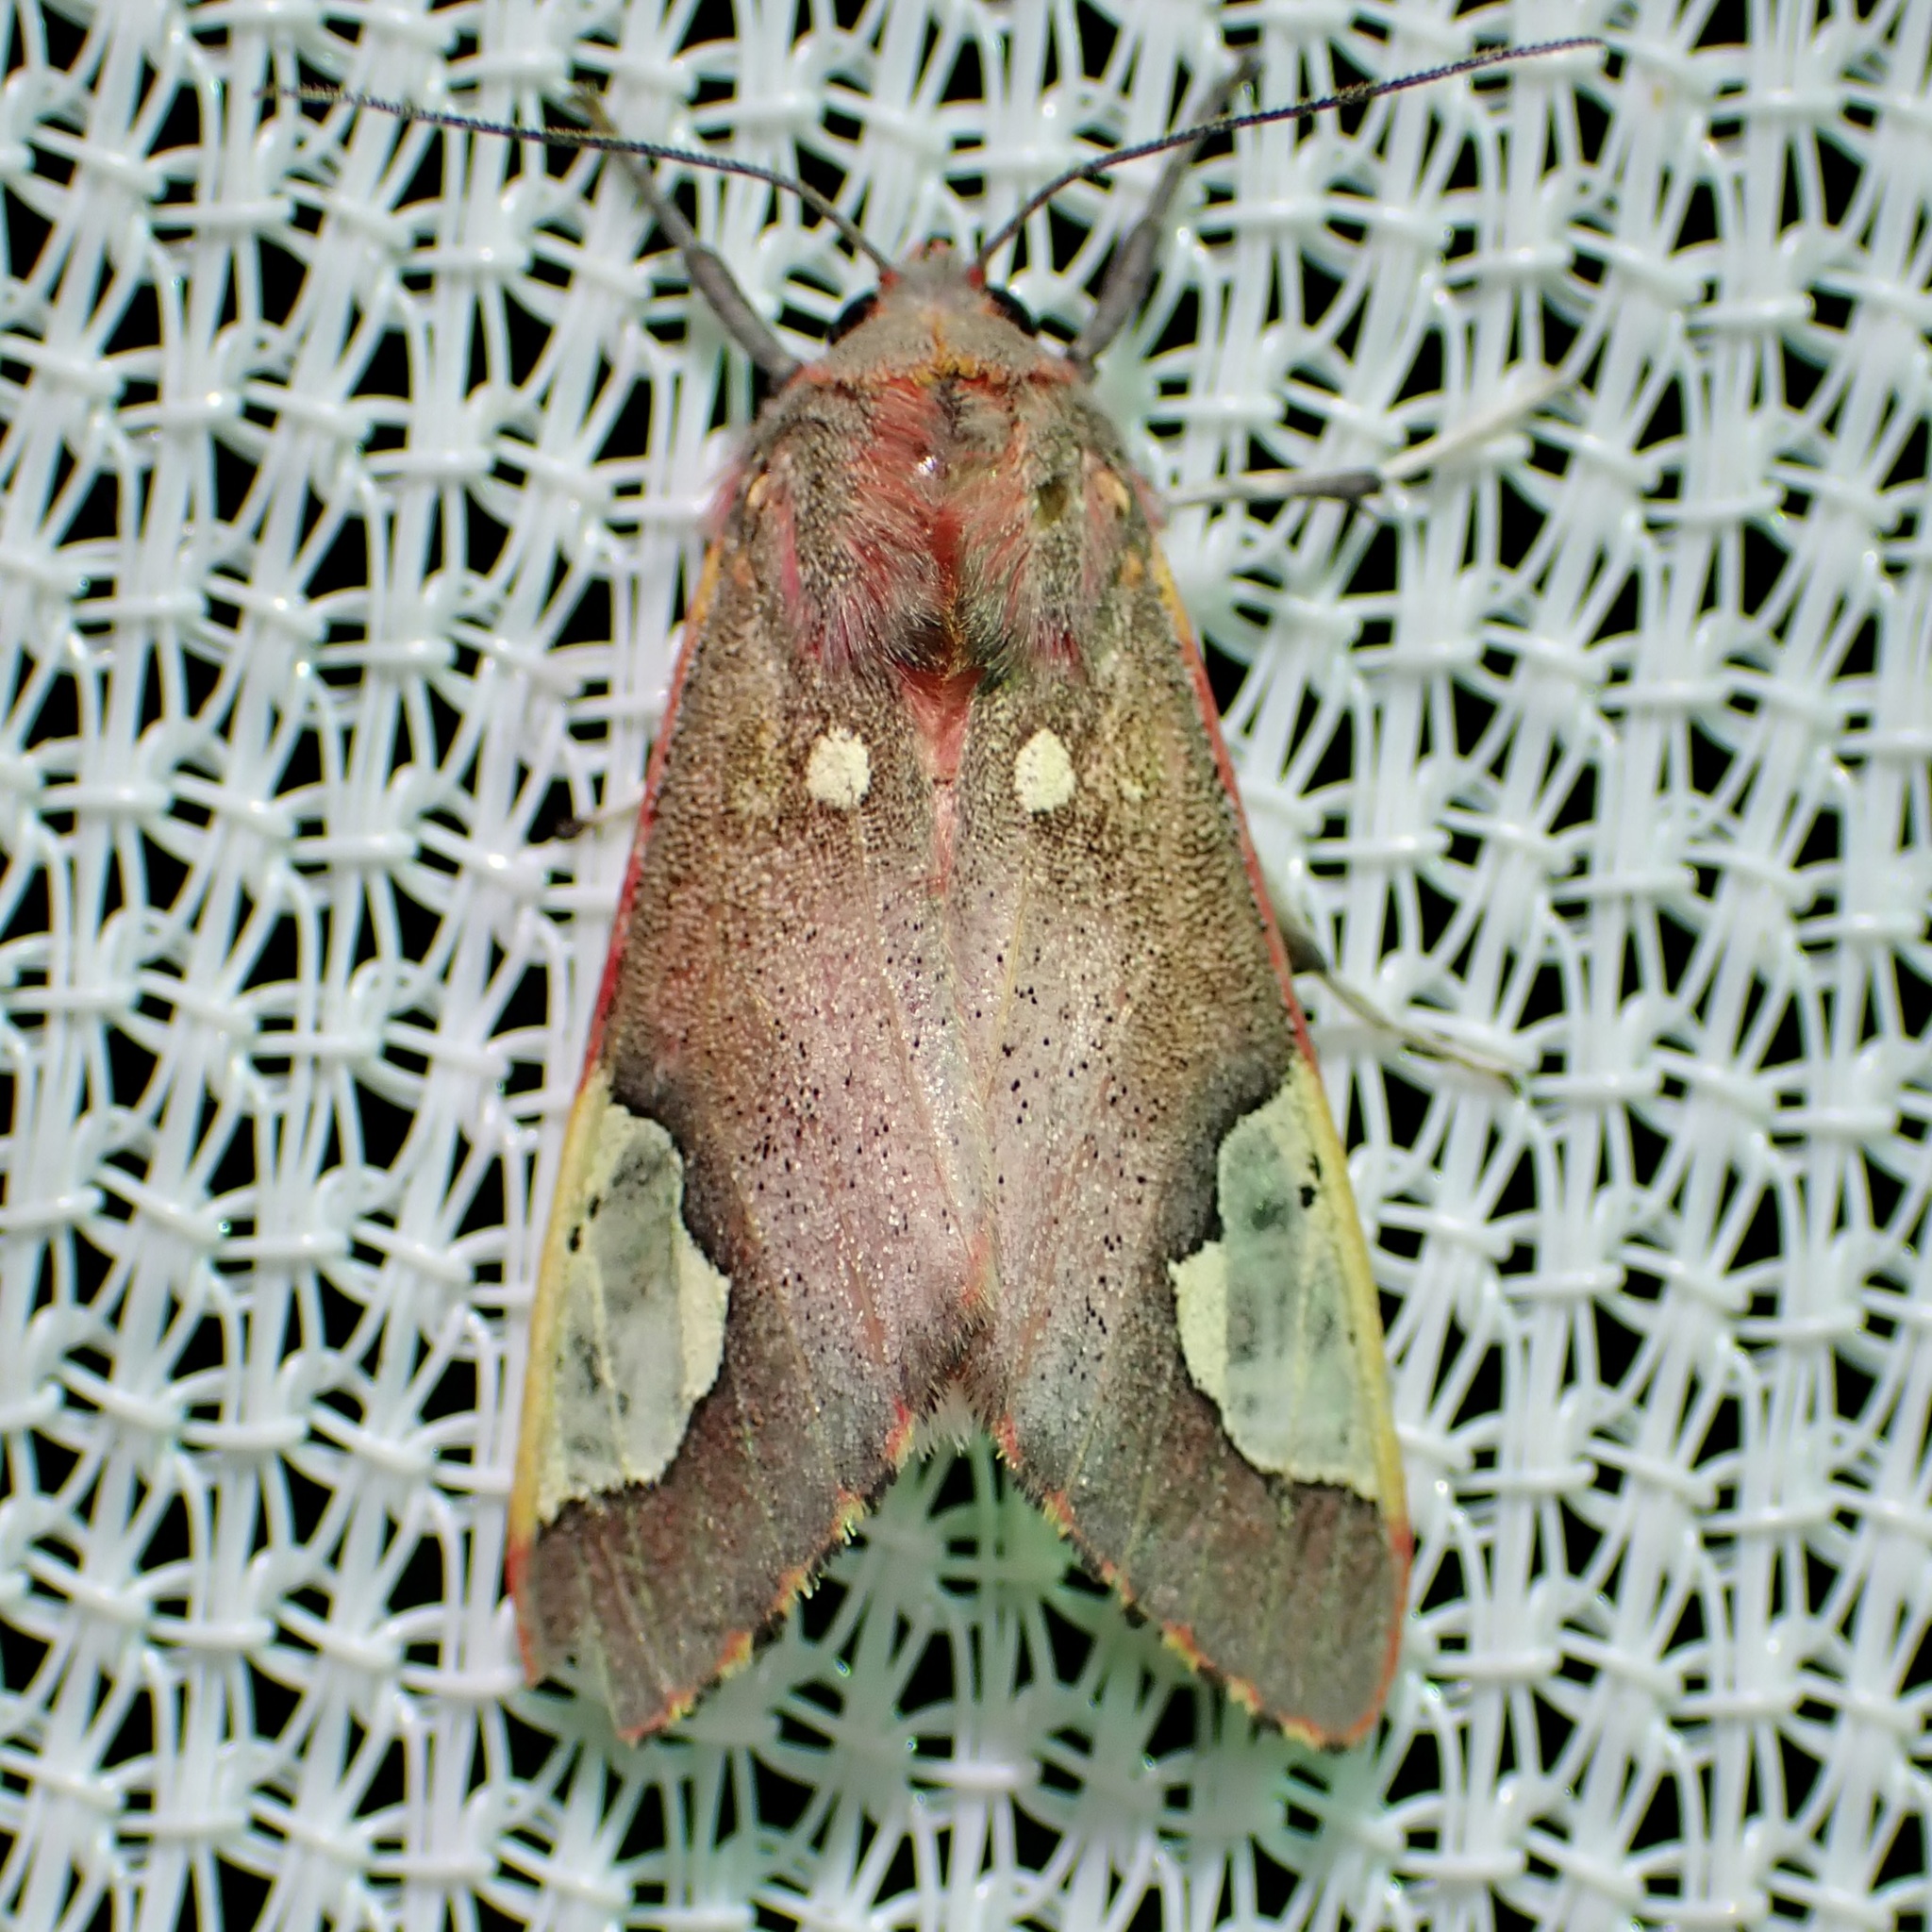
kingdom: Animalia
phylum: Arthropoda
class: Insecta
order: Lepidoptera
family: Erebidae
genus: Bertholdia
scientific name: Bertholdia trigona
